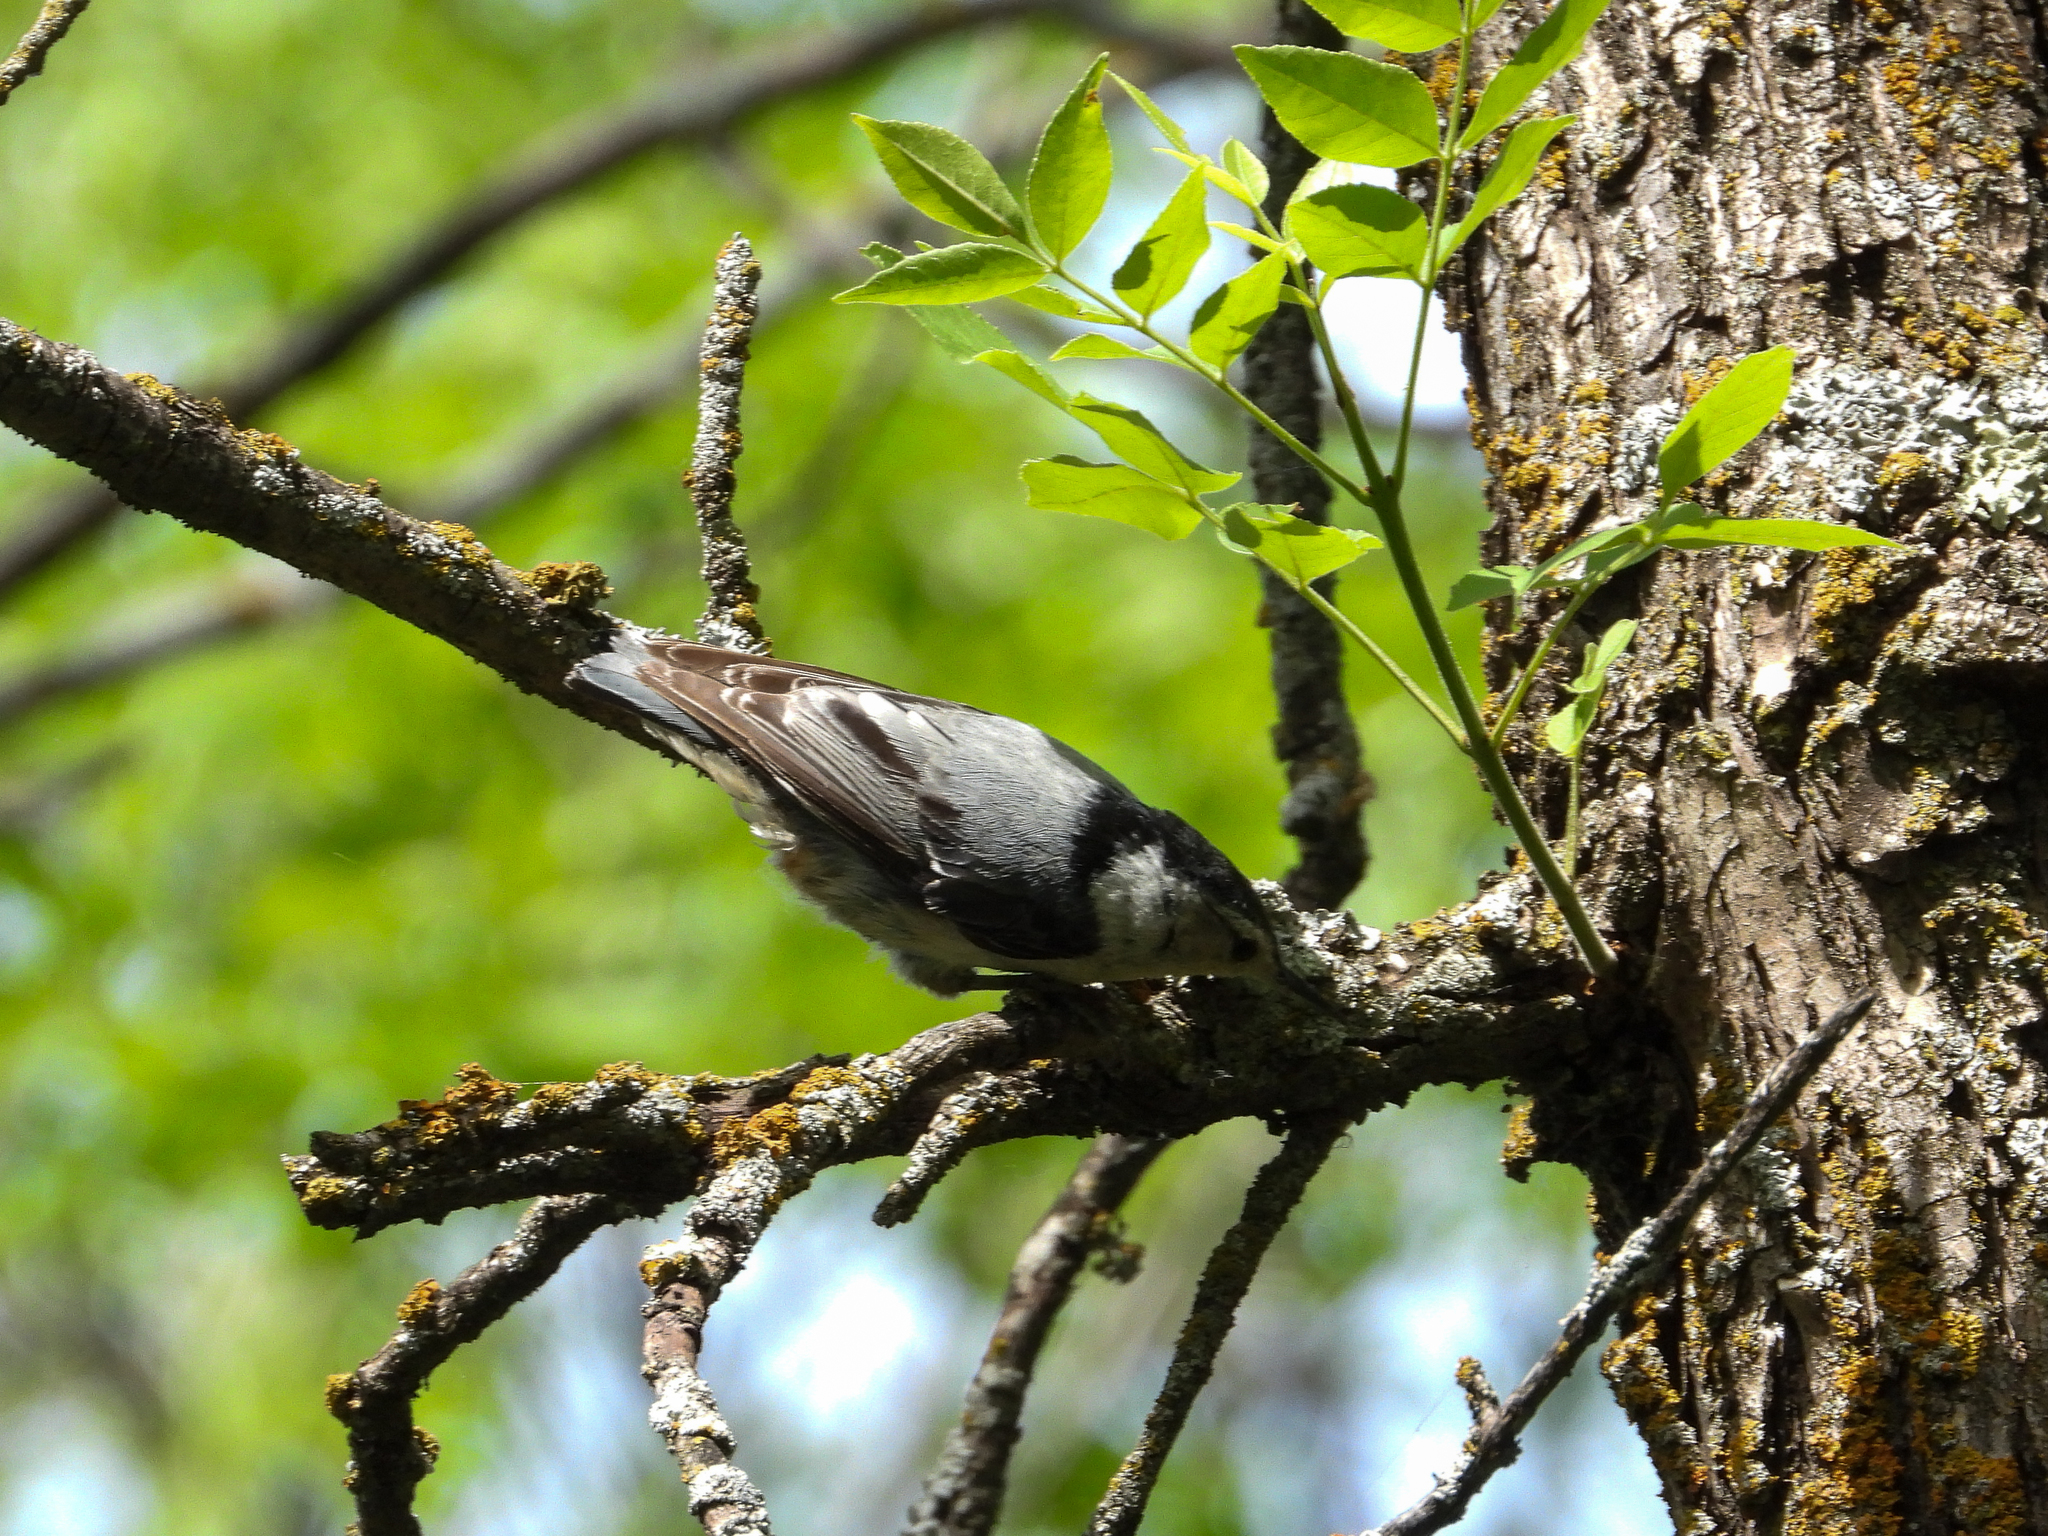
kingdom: Animalia
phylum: Chordata
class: Aves
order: Passeriformes
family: Sittidae
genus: Sitta
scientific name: Sitta carolinensis
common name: White-breasted nuthatch
